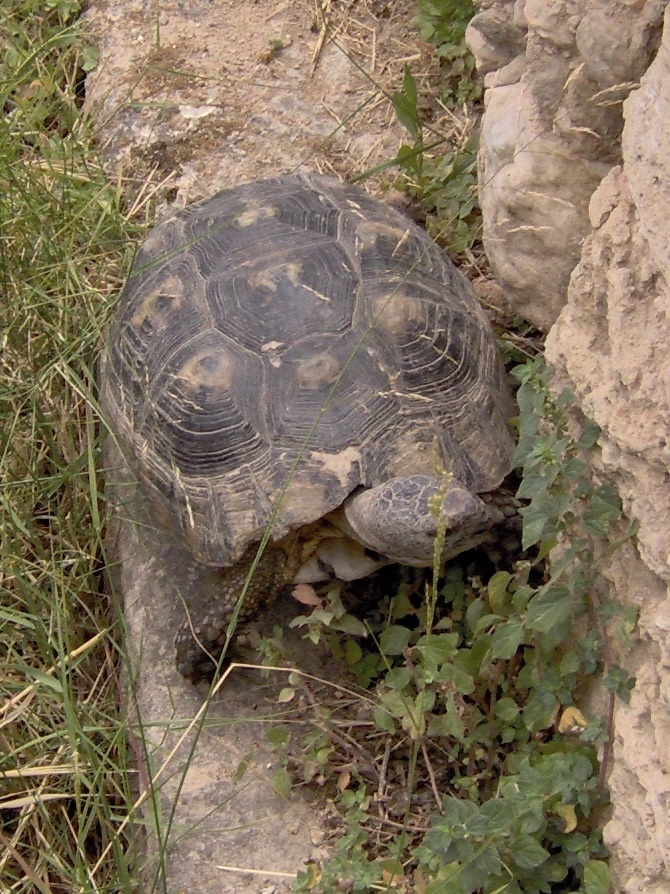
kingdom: Animalia
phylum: Chordata
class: Testudines
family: Testudinidae
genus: Testudo
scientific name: Testudo marginata
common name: Marginated tortoise
